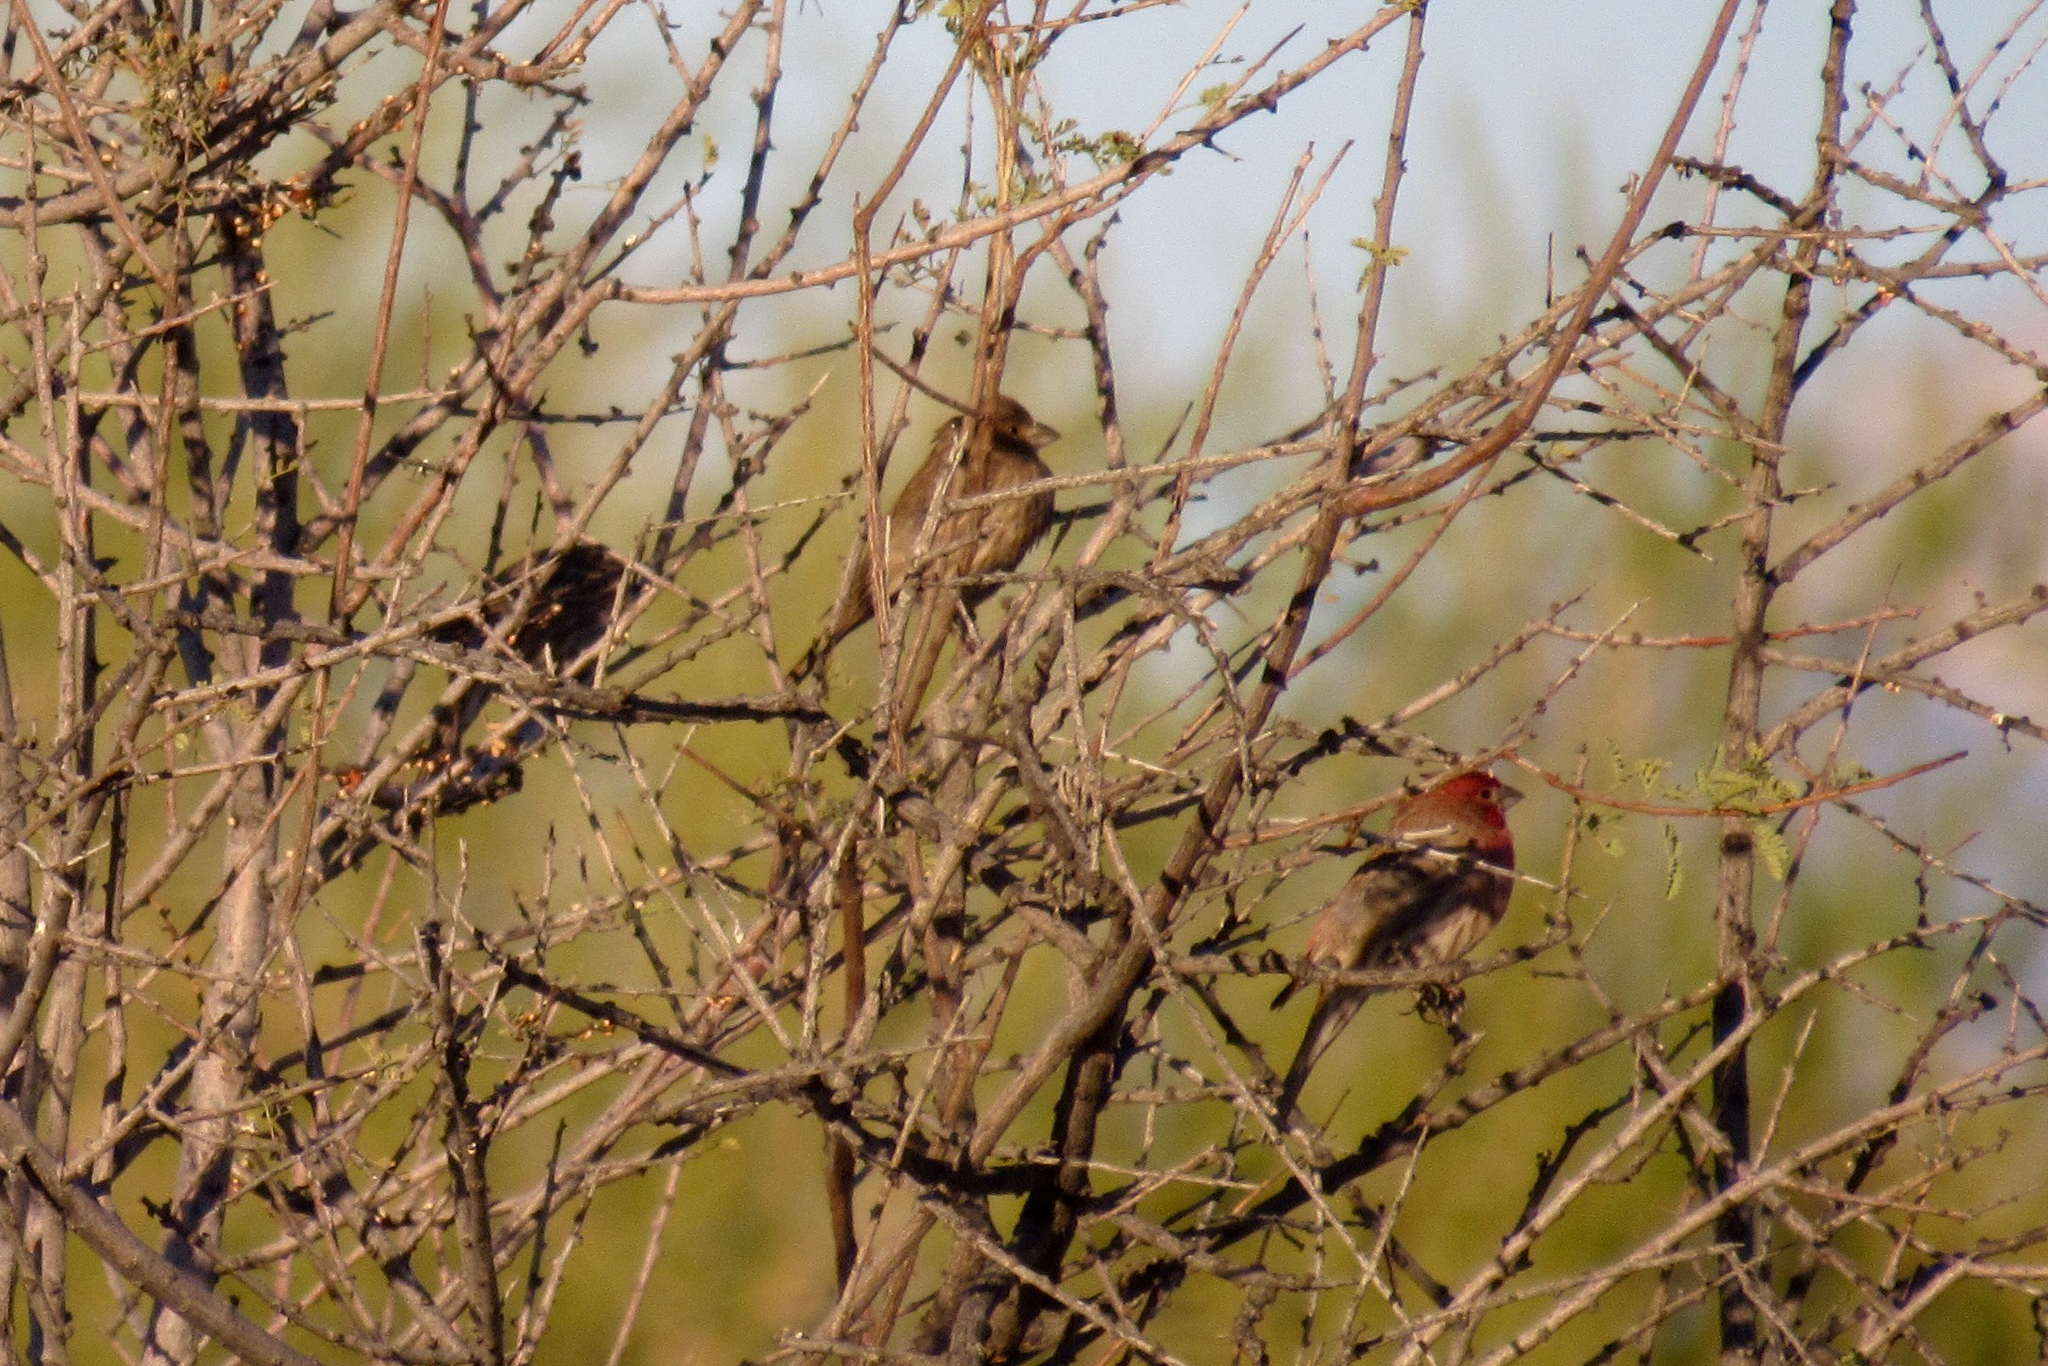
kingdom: Animalia
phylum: Chordata
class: Aves
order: Passeriformes
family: Fringillidae
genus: Haemorhous
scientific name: Haemorhous mexicanus
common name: House finch
